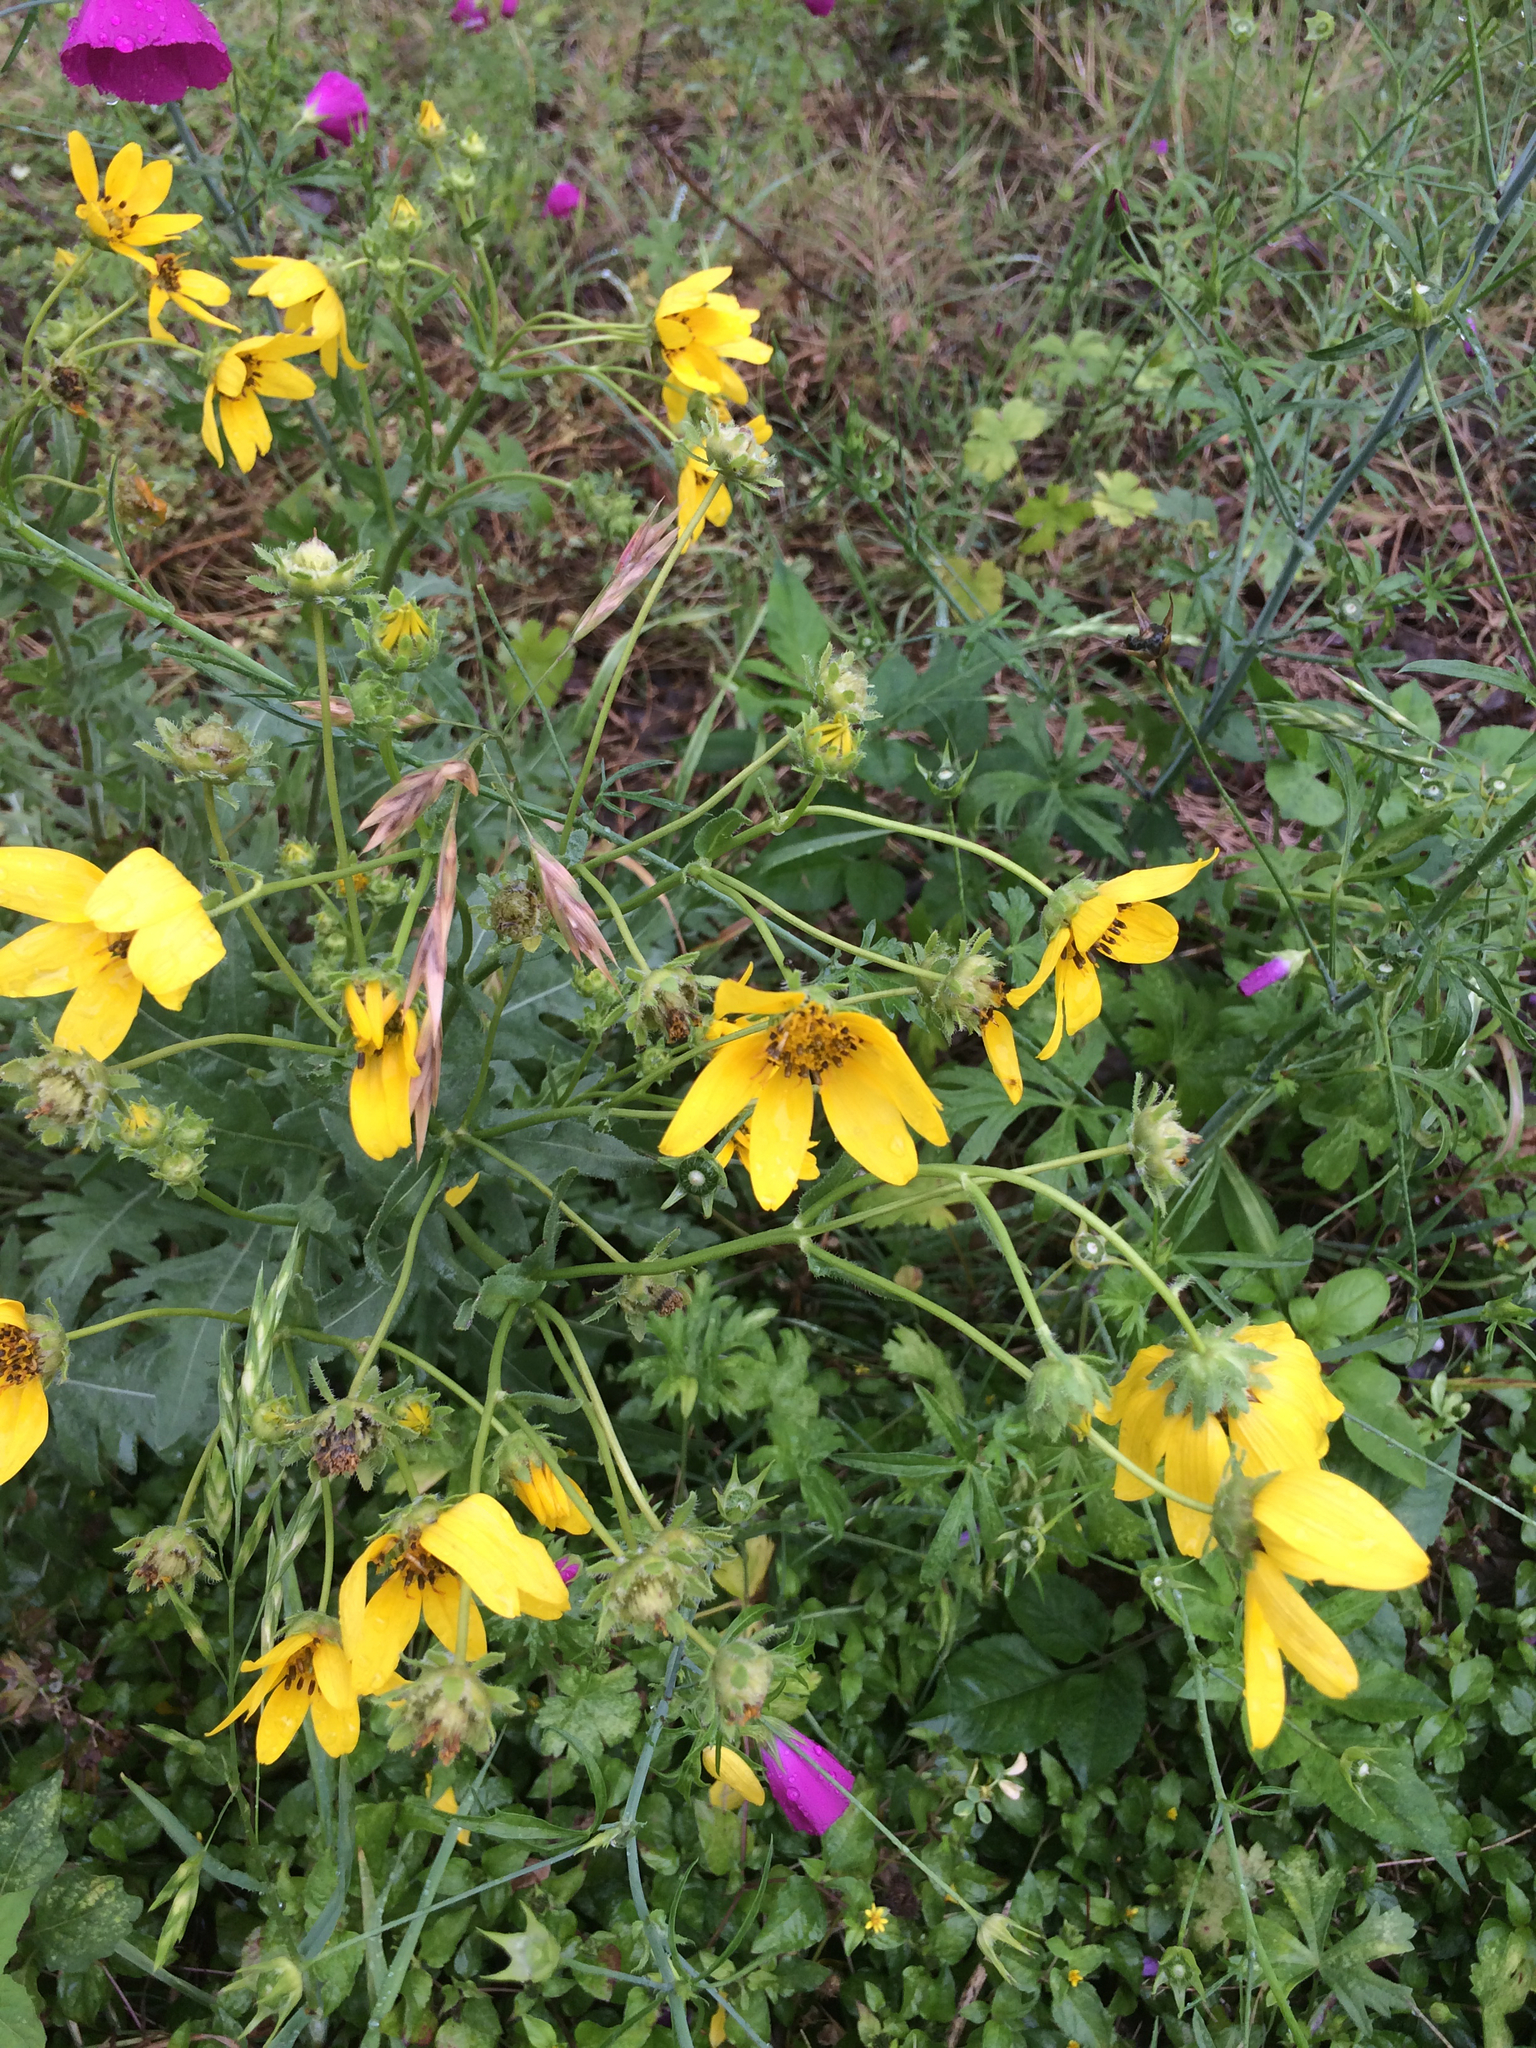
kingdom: Plantae
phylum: Tracheophyta
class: Magnoliopsida
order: Asterales
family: Asteraceae
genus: Engelmannia
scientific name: Engelmannia peristenia
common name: Engelmann's daisy
